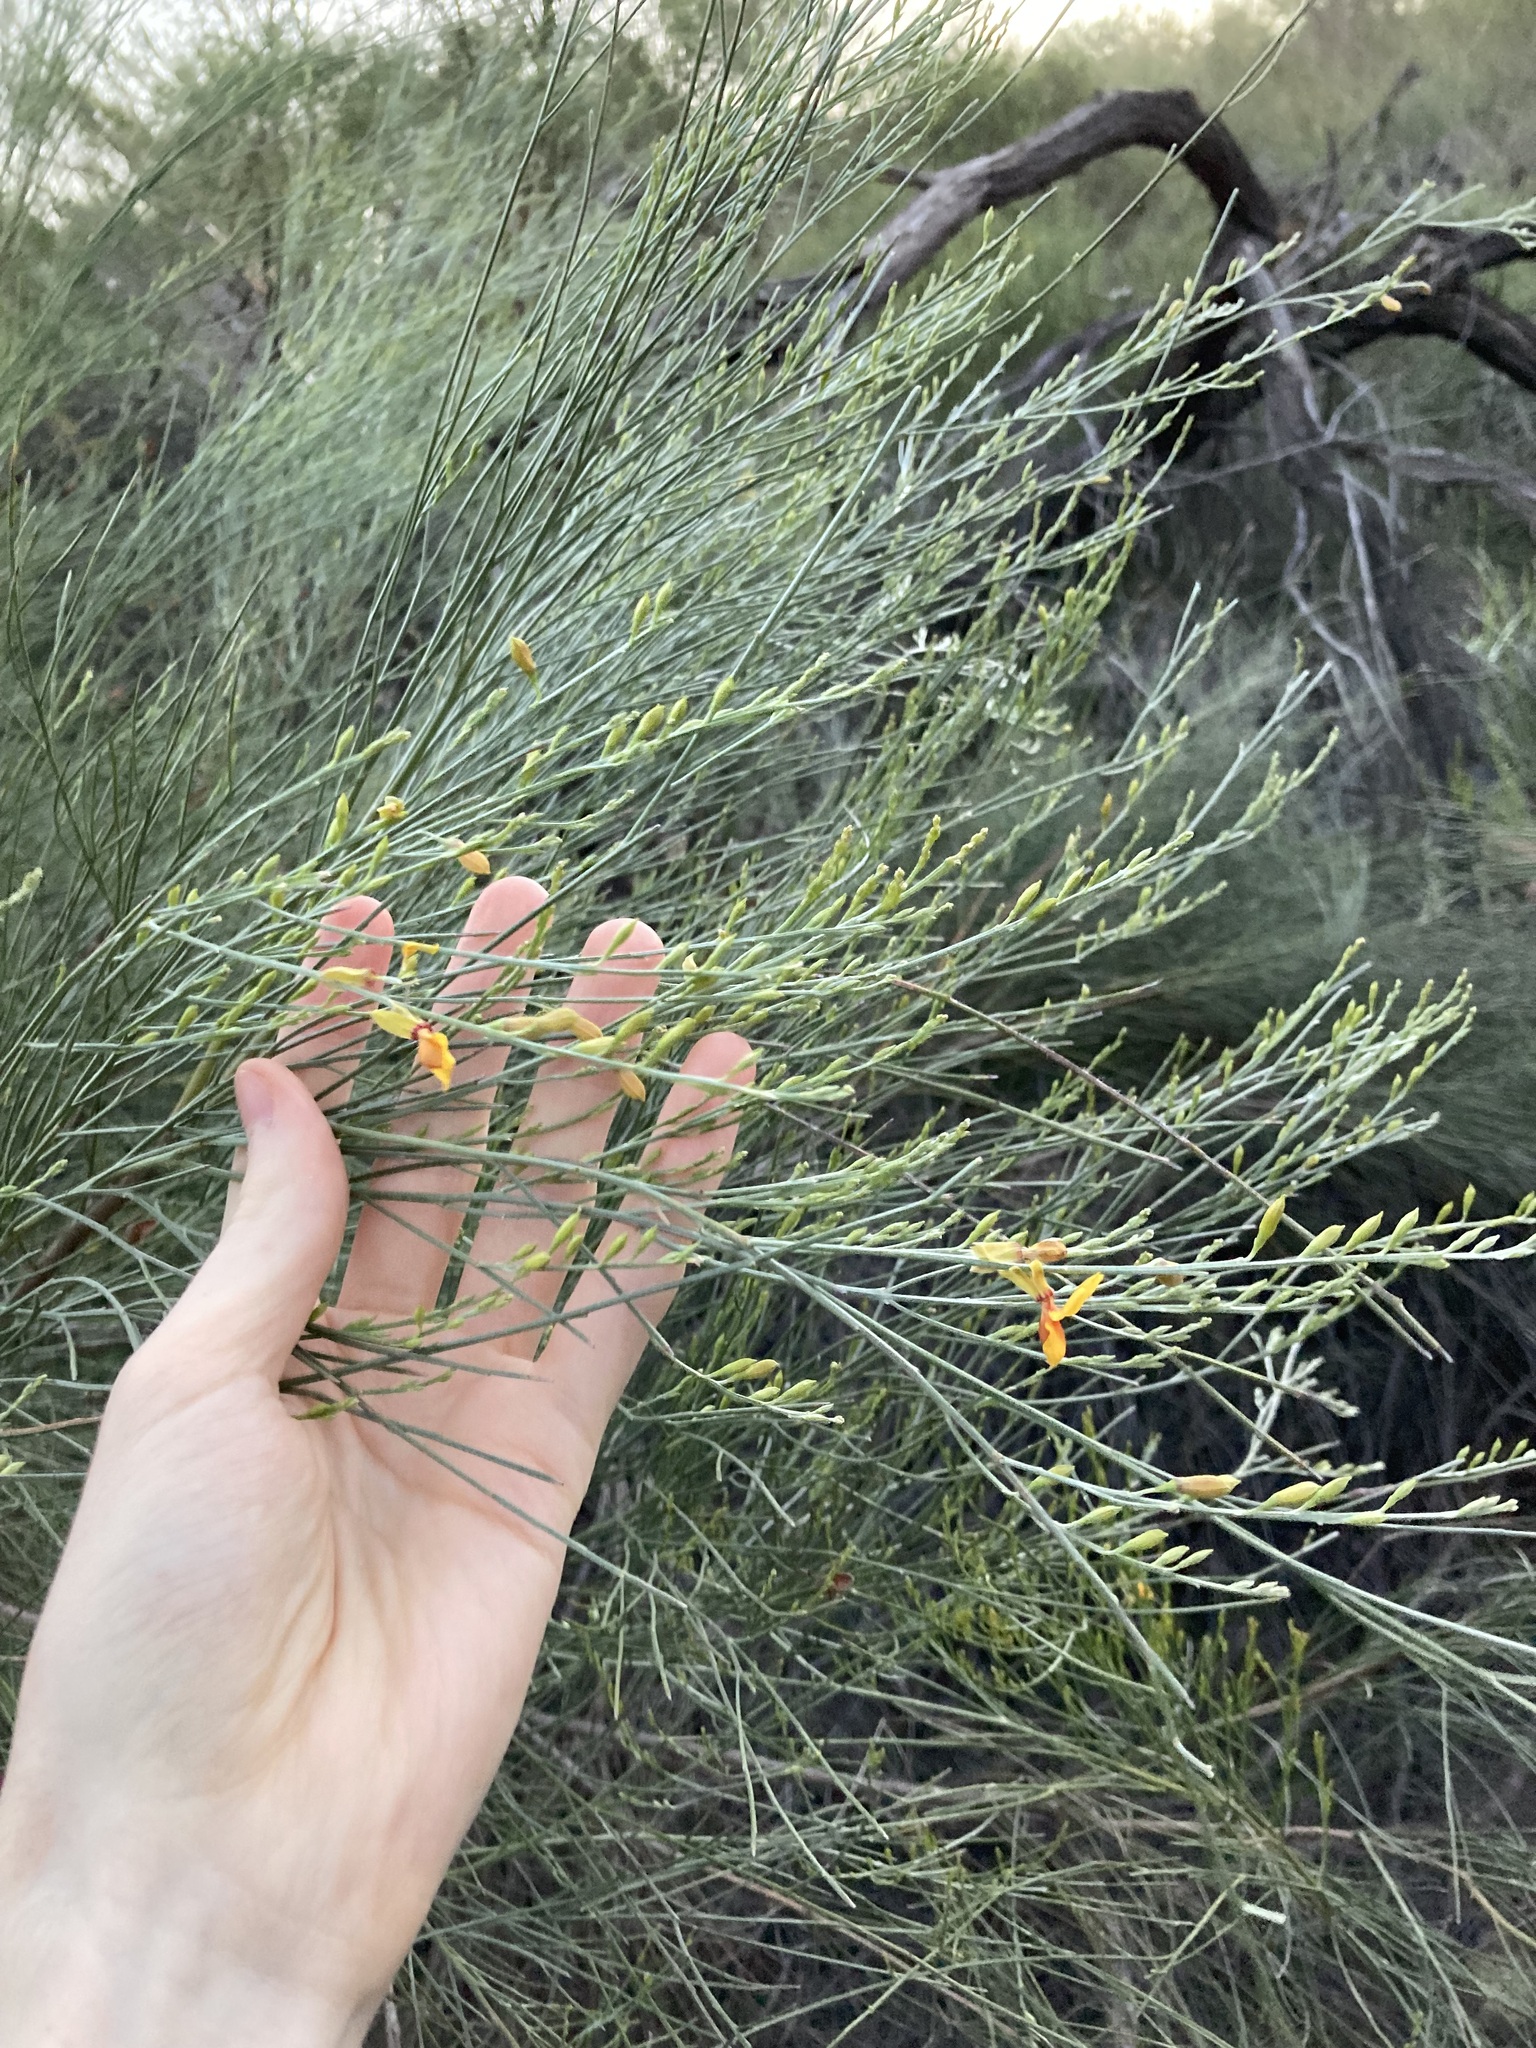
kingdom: Plantae
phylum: Tracheophyta
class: Magnoliopsida
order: Fabales
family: Fabaceae
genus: Jacksonia
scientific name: Jacksonia cupulifera
